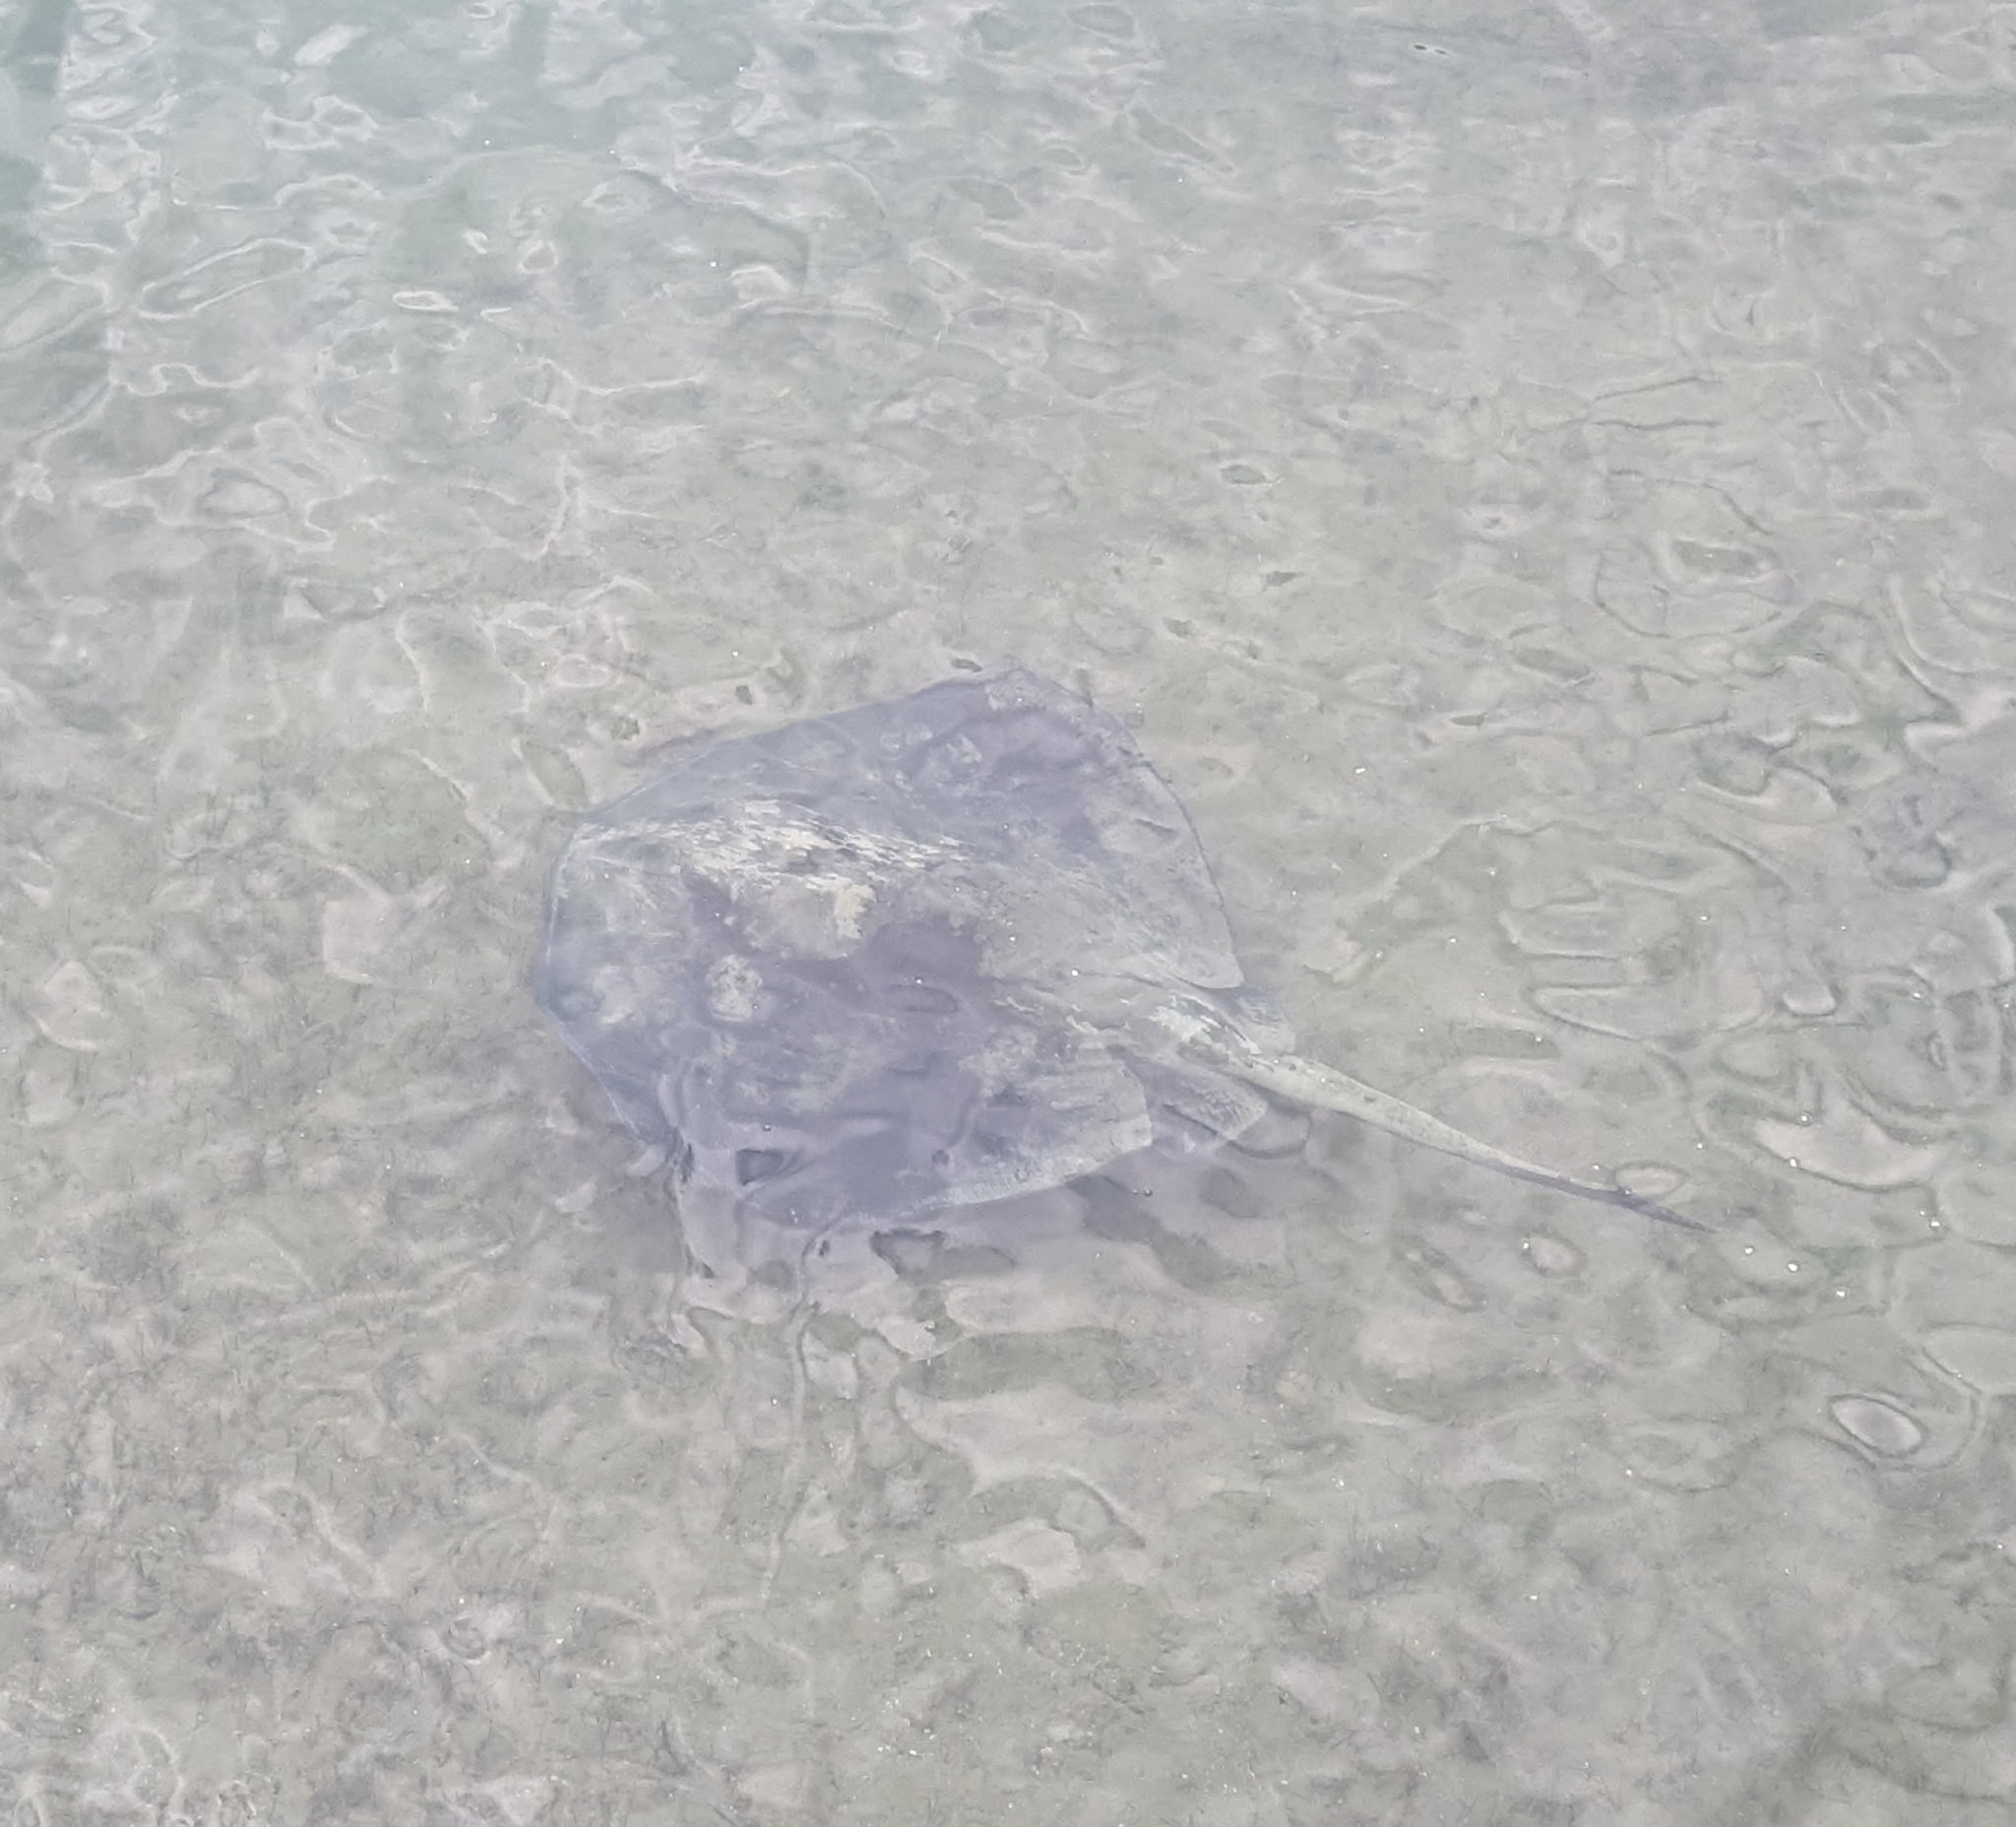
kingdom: Animalia
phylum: Chordata
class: Elasmobranchii
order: Myliobatiformes
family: Dasyatidae
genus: Bathytoshia
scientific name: Bathytoshia brevicaudata
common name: Short-tail stingray
